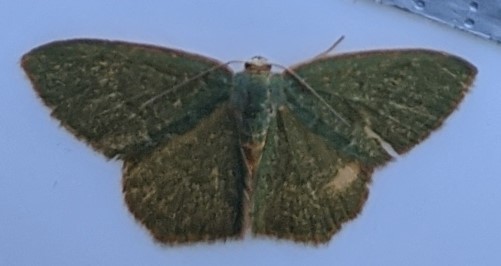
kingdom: Animalia
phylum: Arthropoda
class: Insecta
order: Lepidoptera
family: Geometridae
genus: Thalera
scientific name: Thalera pistasciaria
